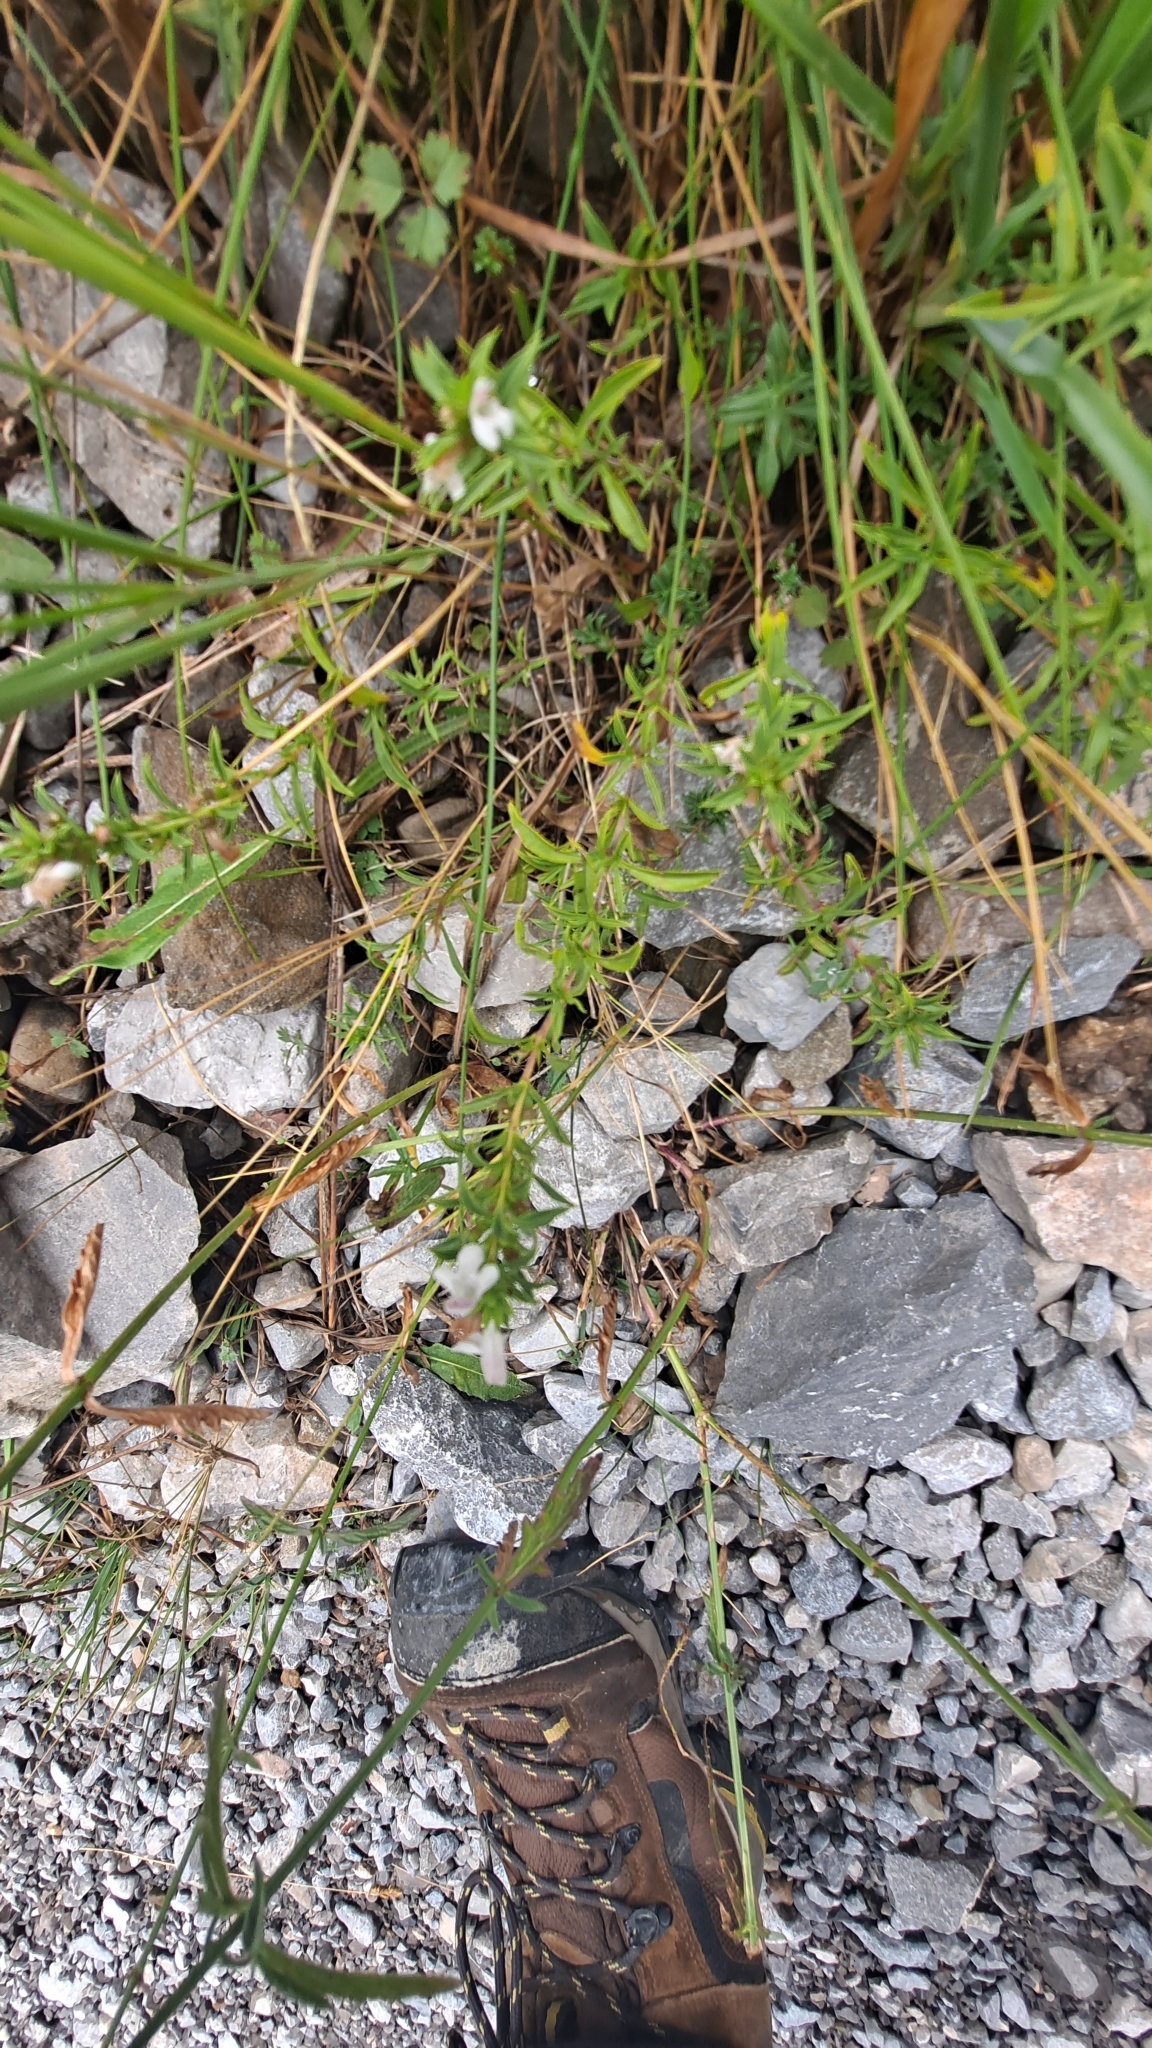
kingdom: Plantae
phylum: Tracheophyta
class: Magnoliopsida
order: Lamiales
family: Lamiaceae
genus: Satureja
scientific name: Satureja montana
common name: Winter savory
